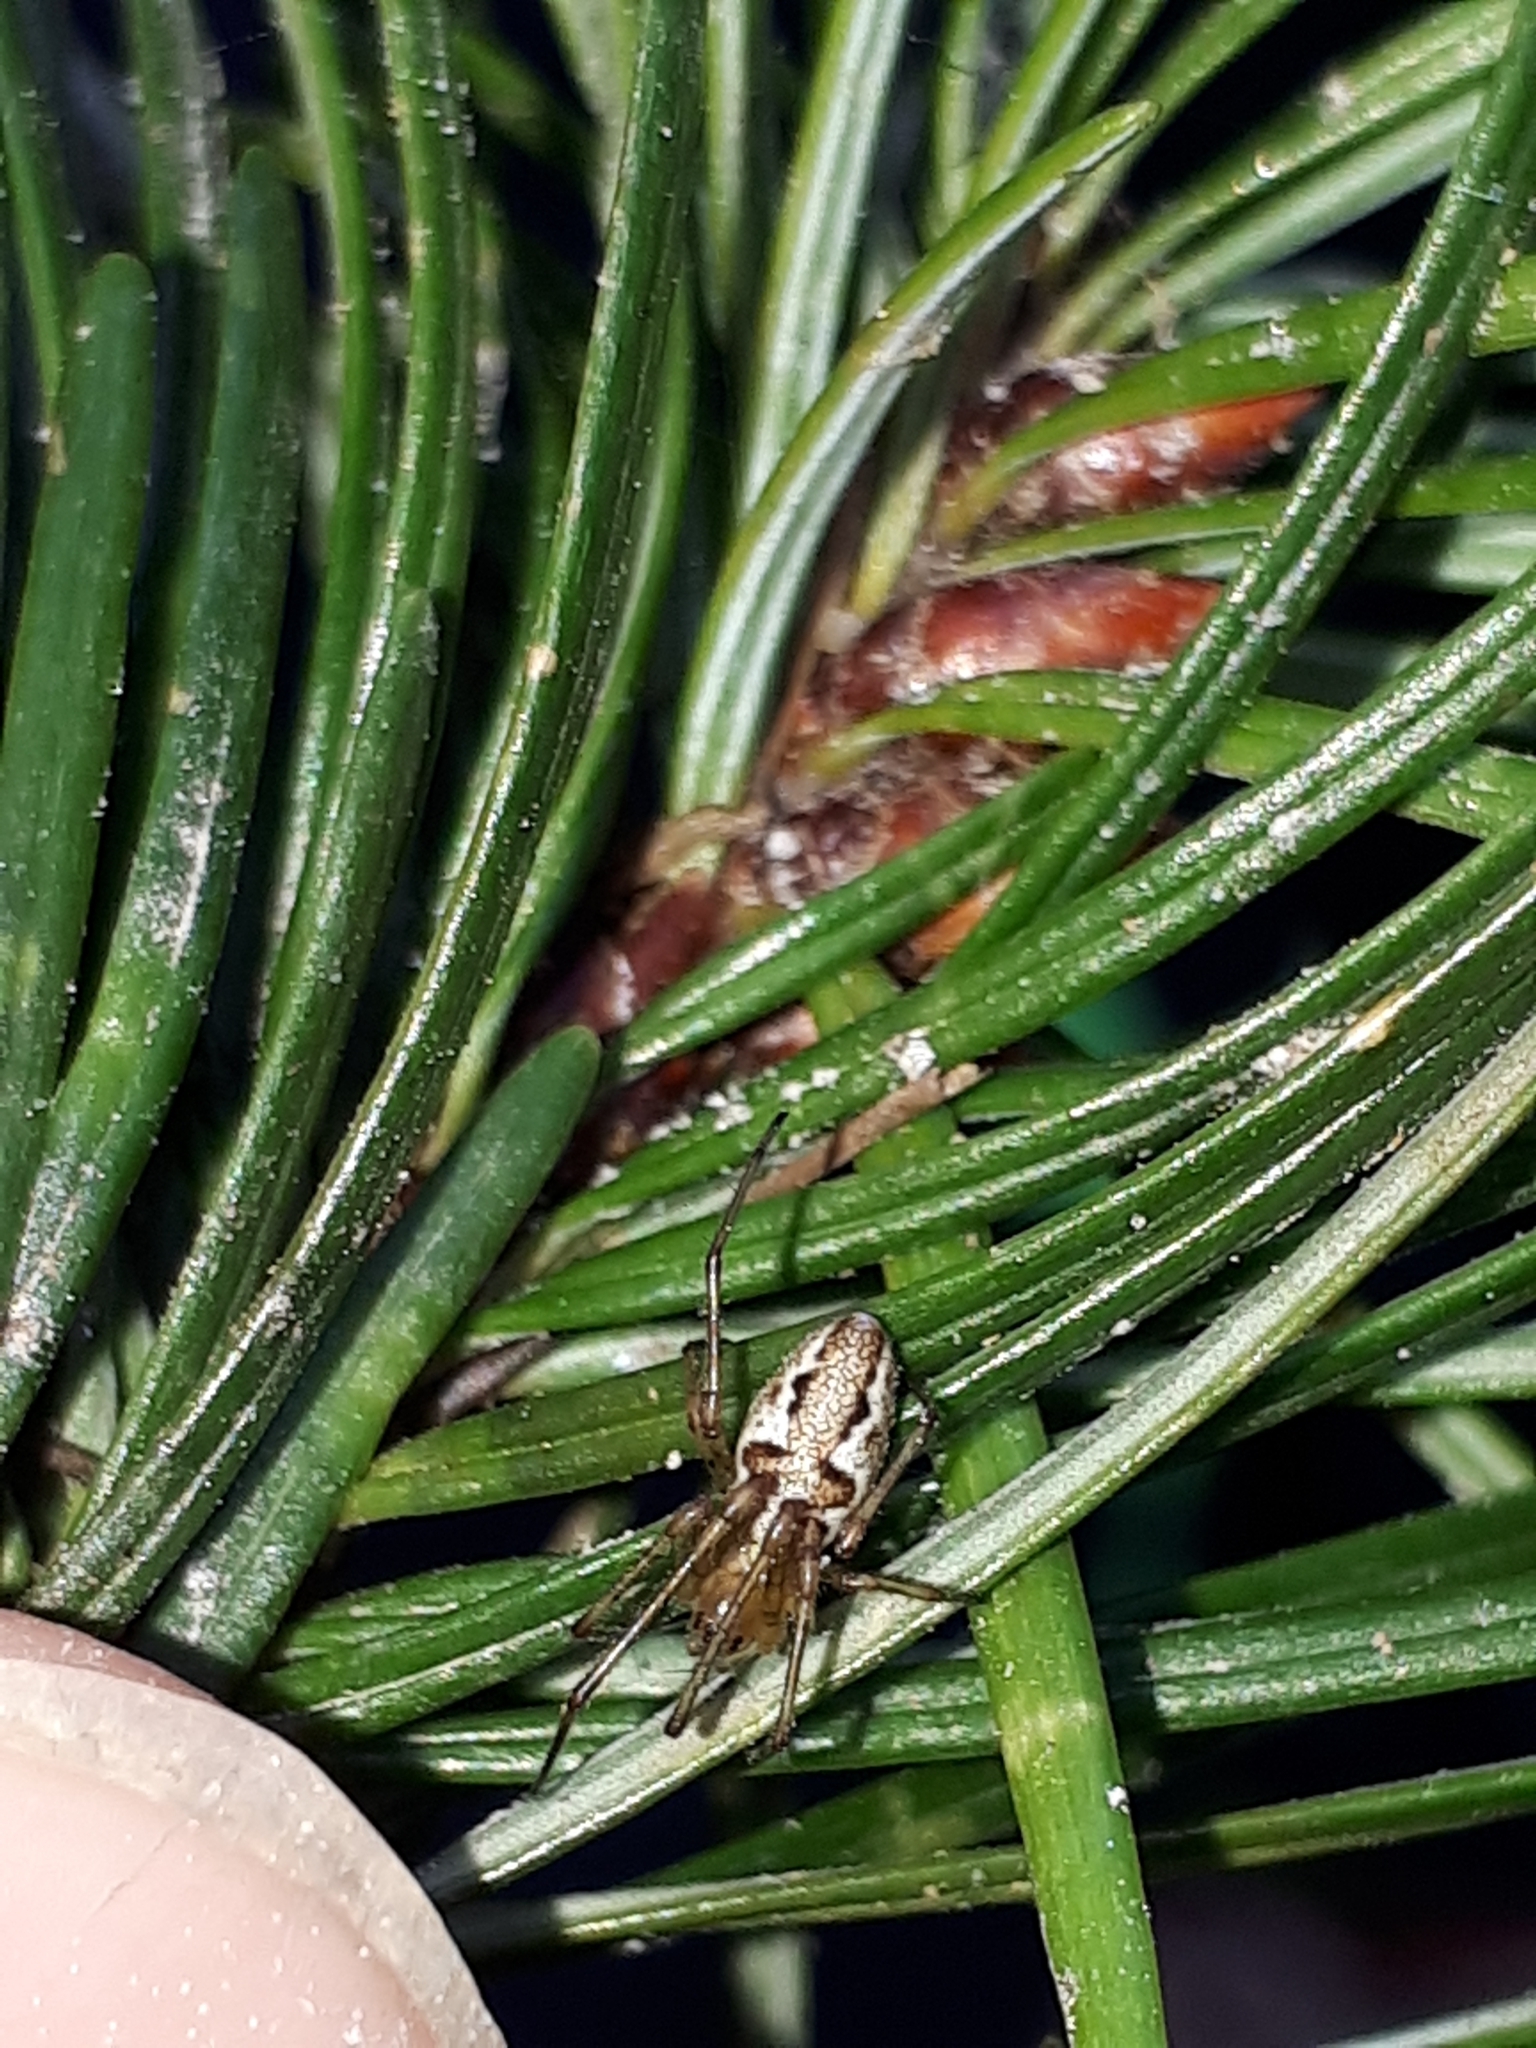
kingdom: Animalia
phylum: Arthropoda
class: Arachnida
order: Araneae
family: Tetragnathidae
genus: Tetragnatha
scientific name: Tetragnatha obtusa
